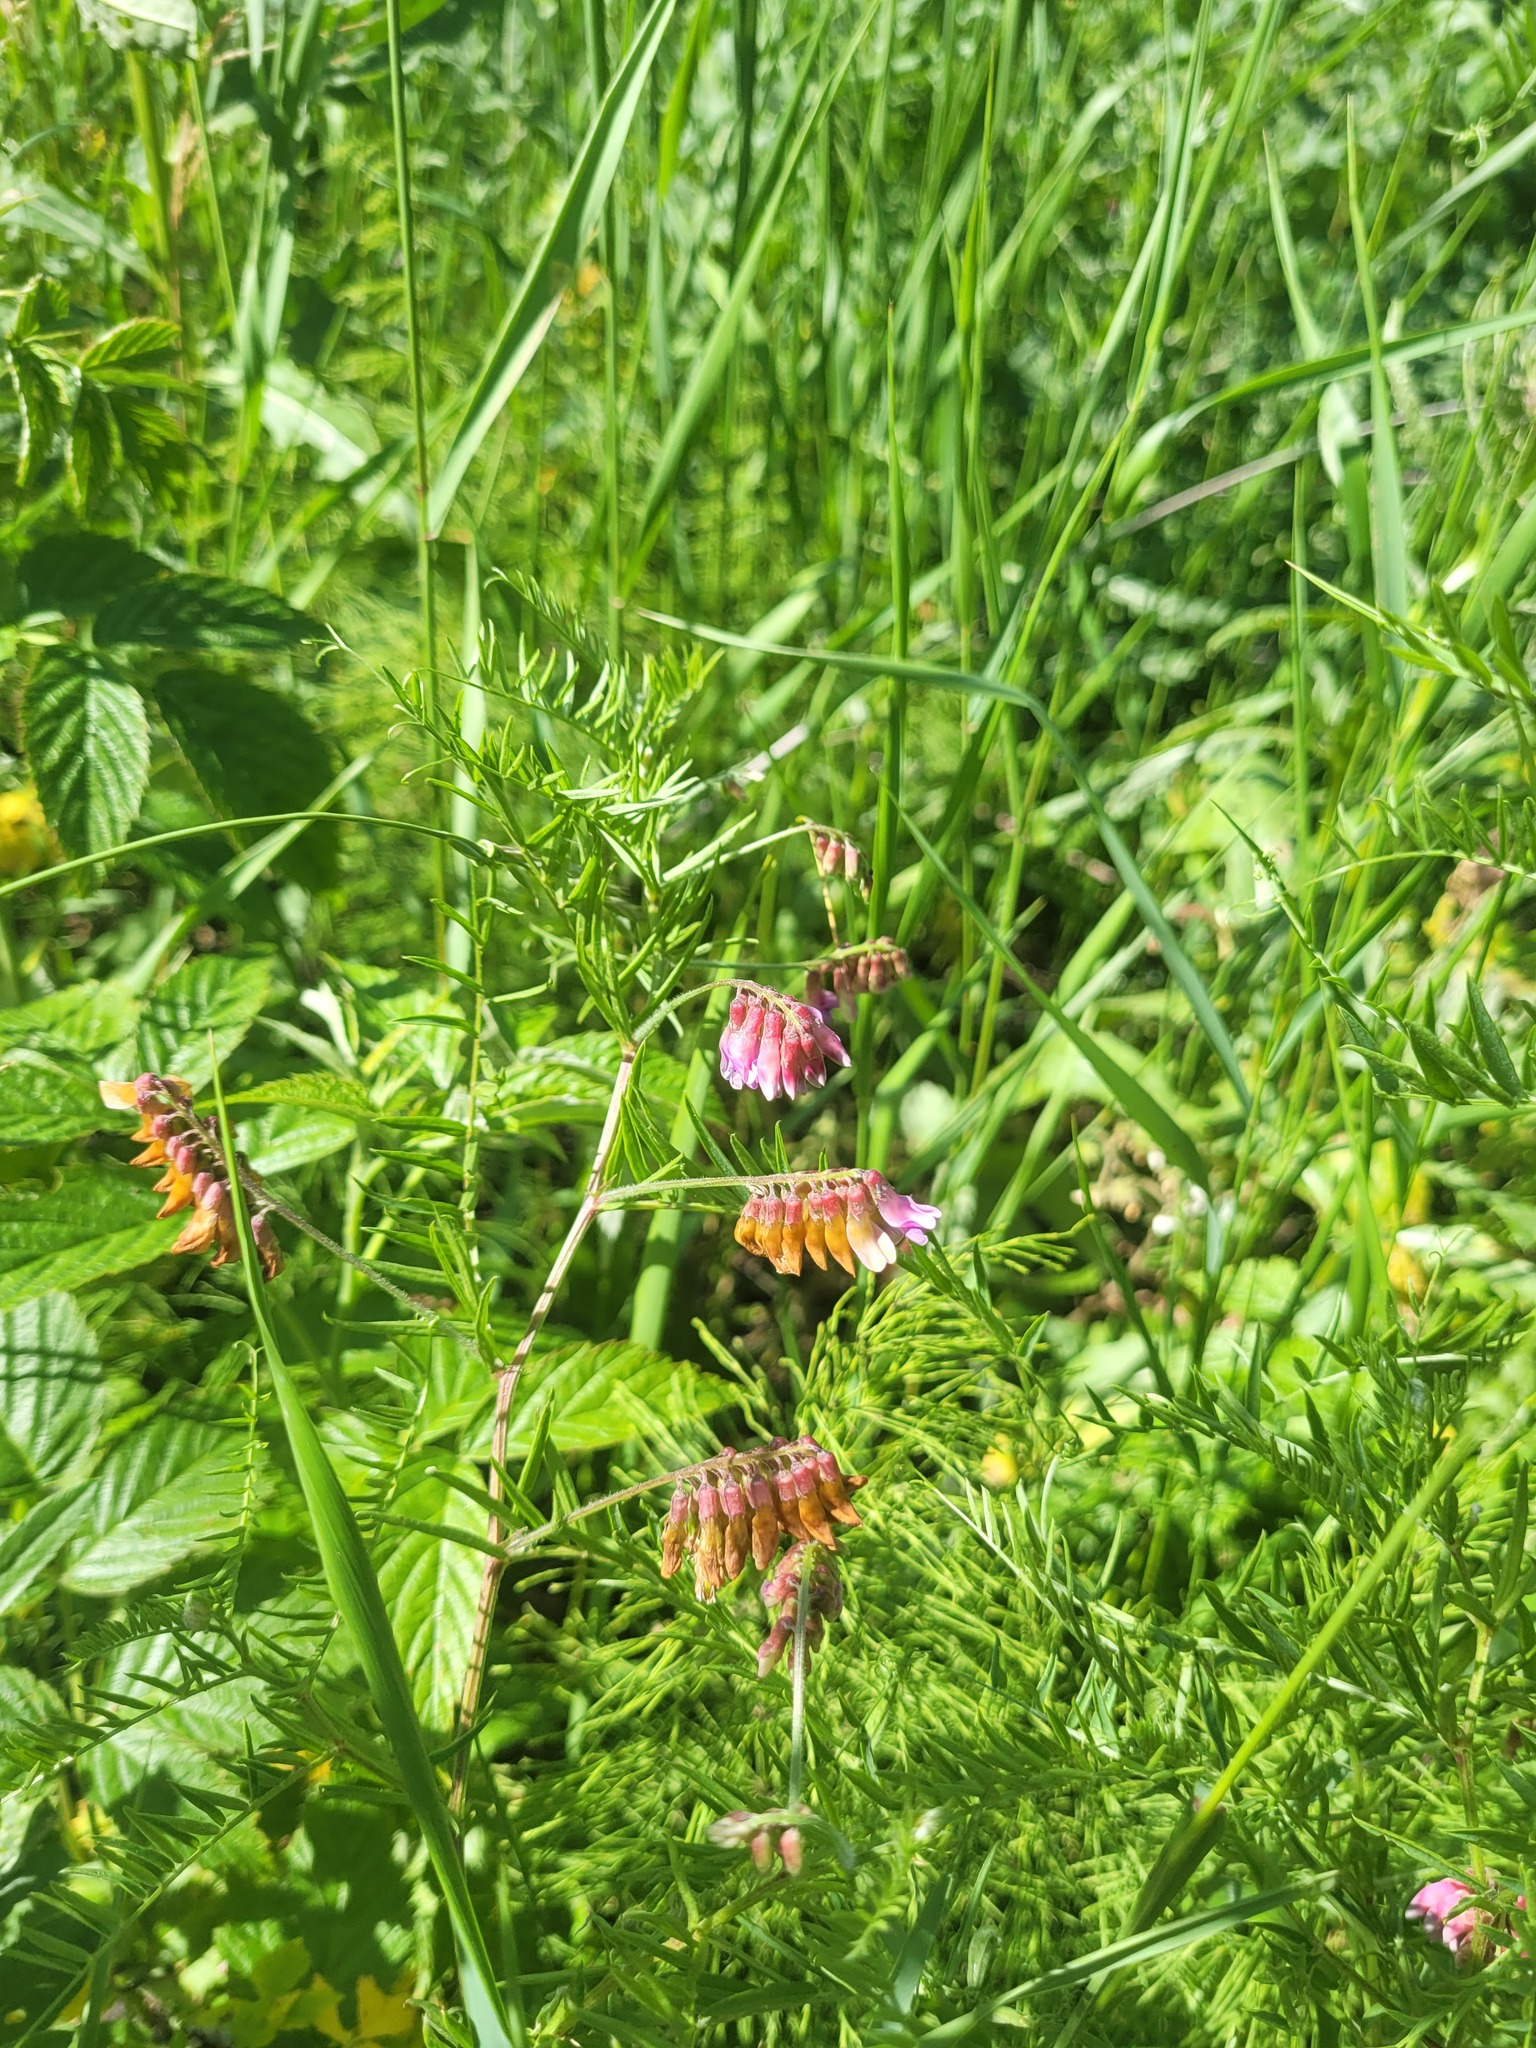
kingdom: Plantae
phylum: Tracheophyta
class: Magnoliopsida
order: Fabales
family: Fabaceae
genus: Vicia
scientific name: Vicia megalotropis
